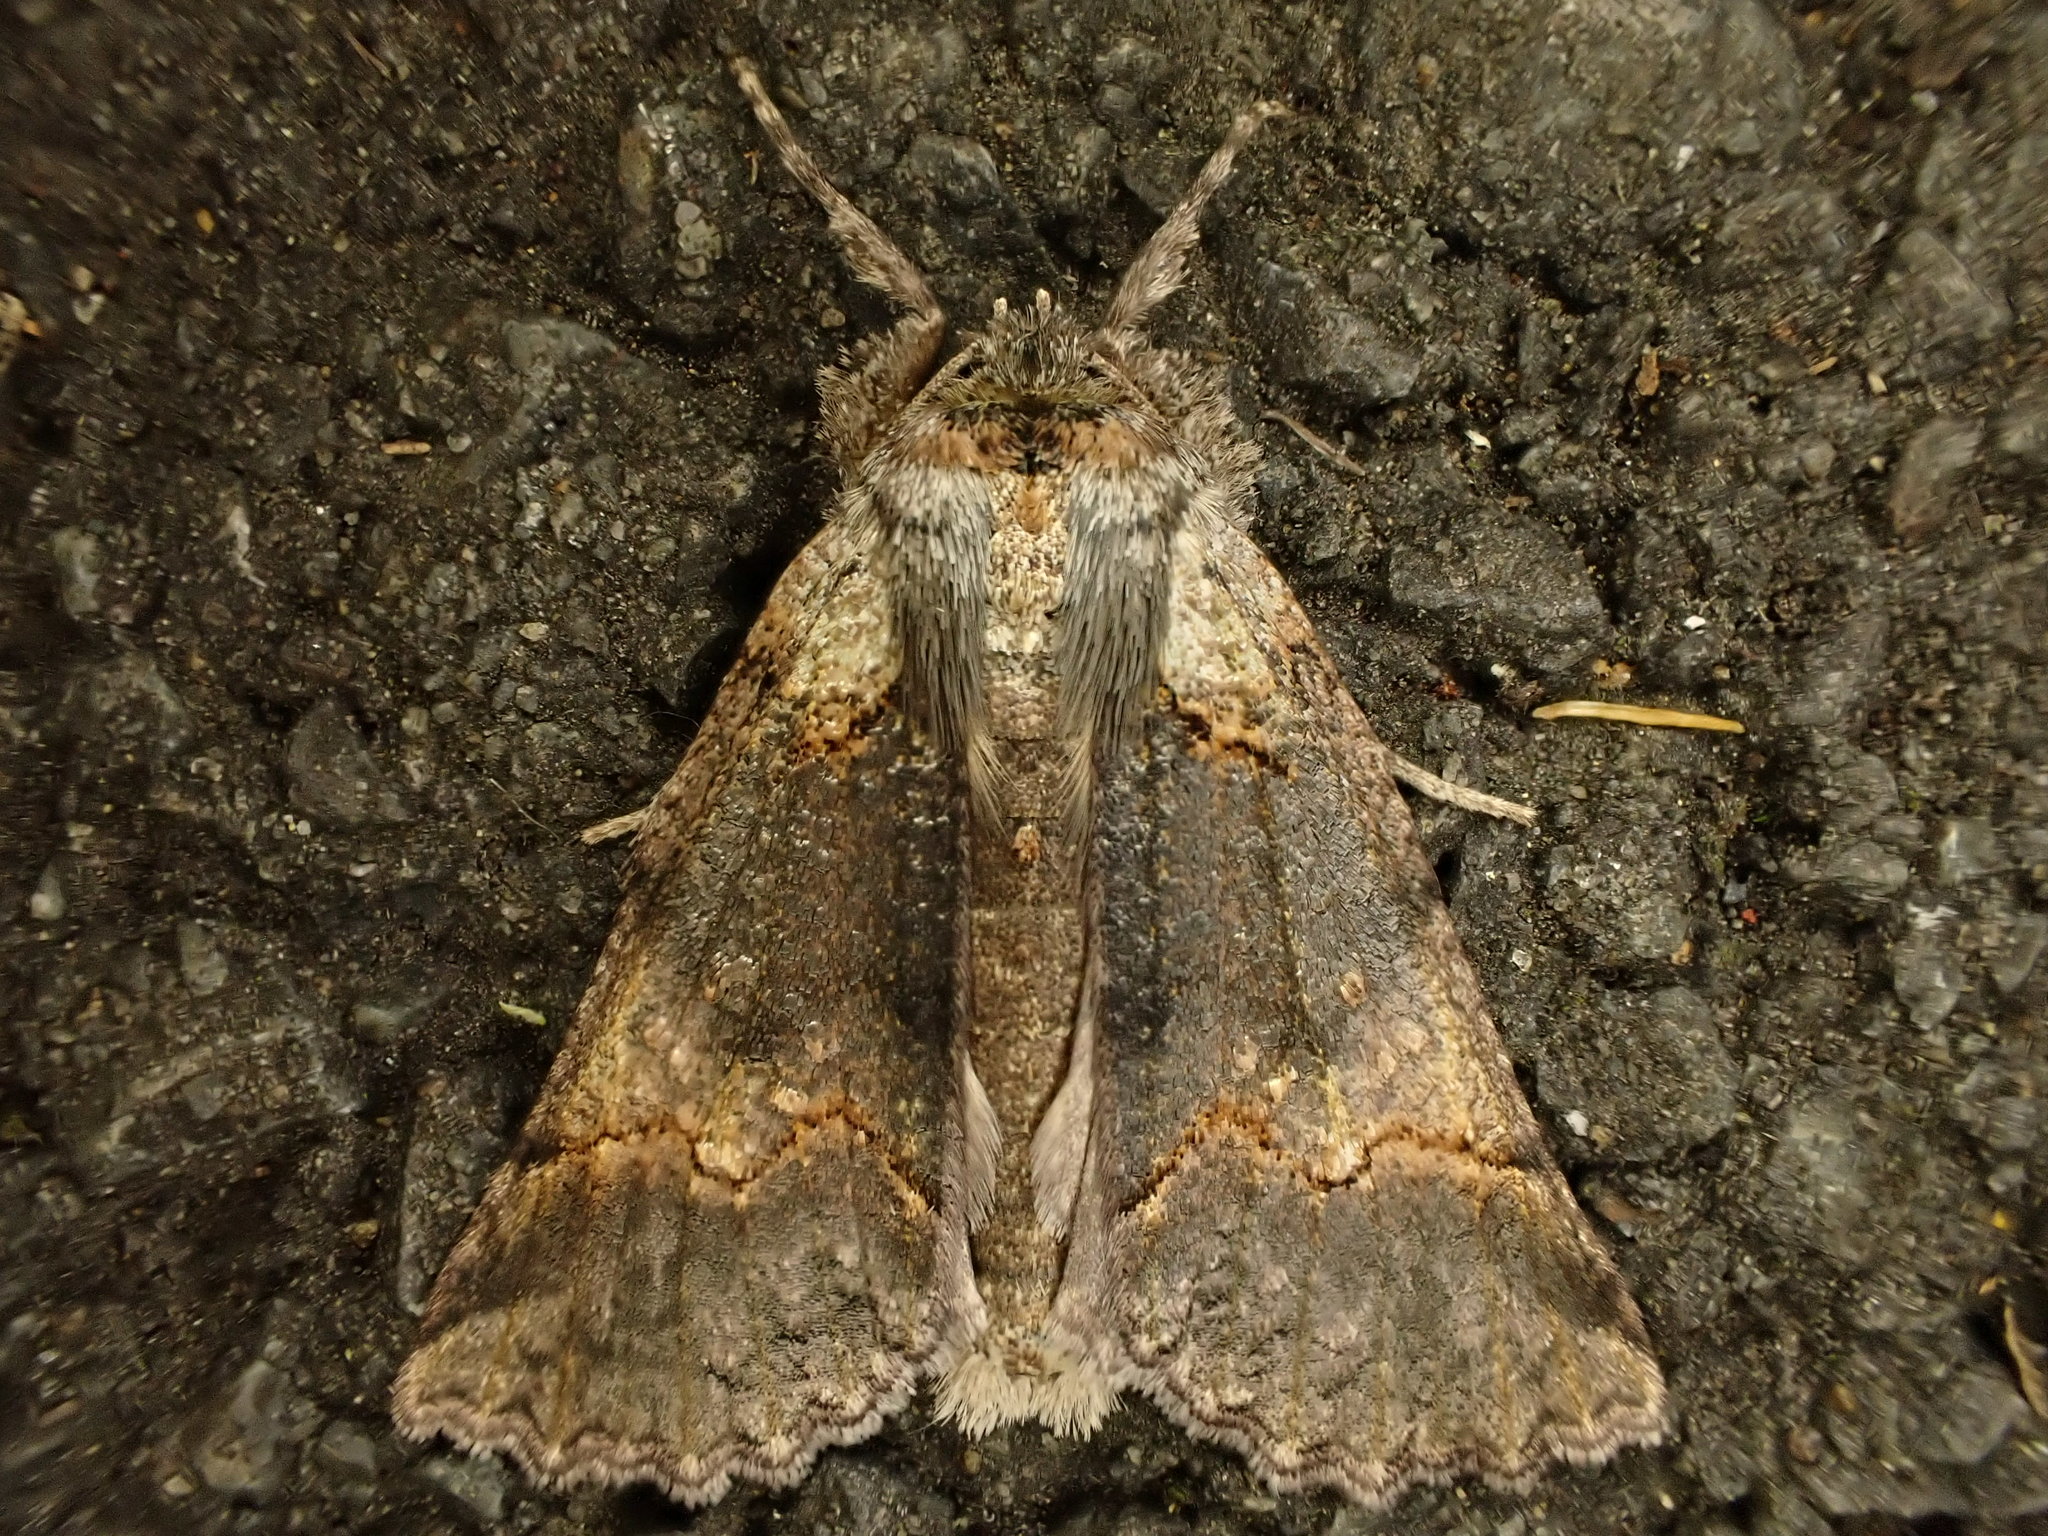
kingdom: Animalia
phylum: Arthropoda
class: Insecta
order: Lepidoptera
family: Geometridae
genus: Declana
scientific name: Declana floccosa
